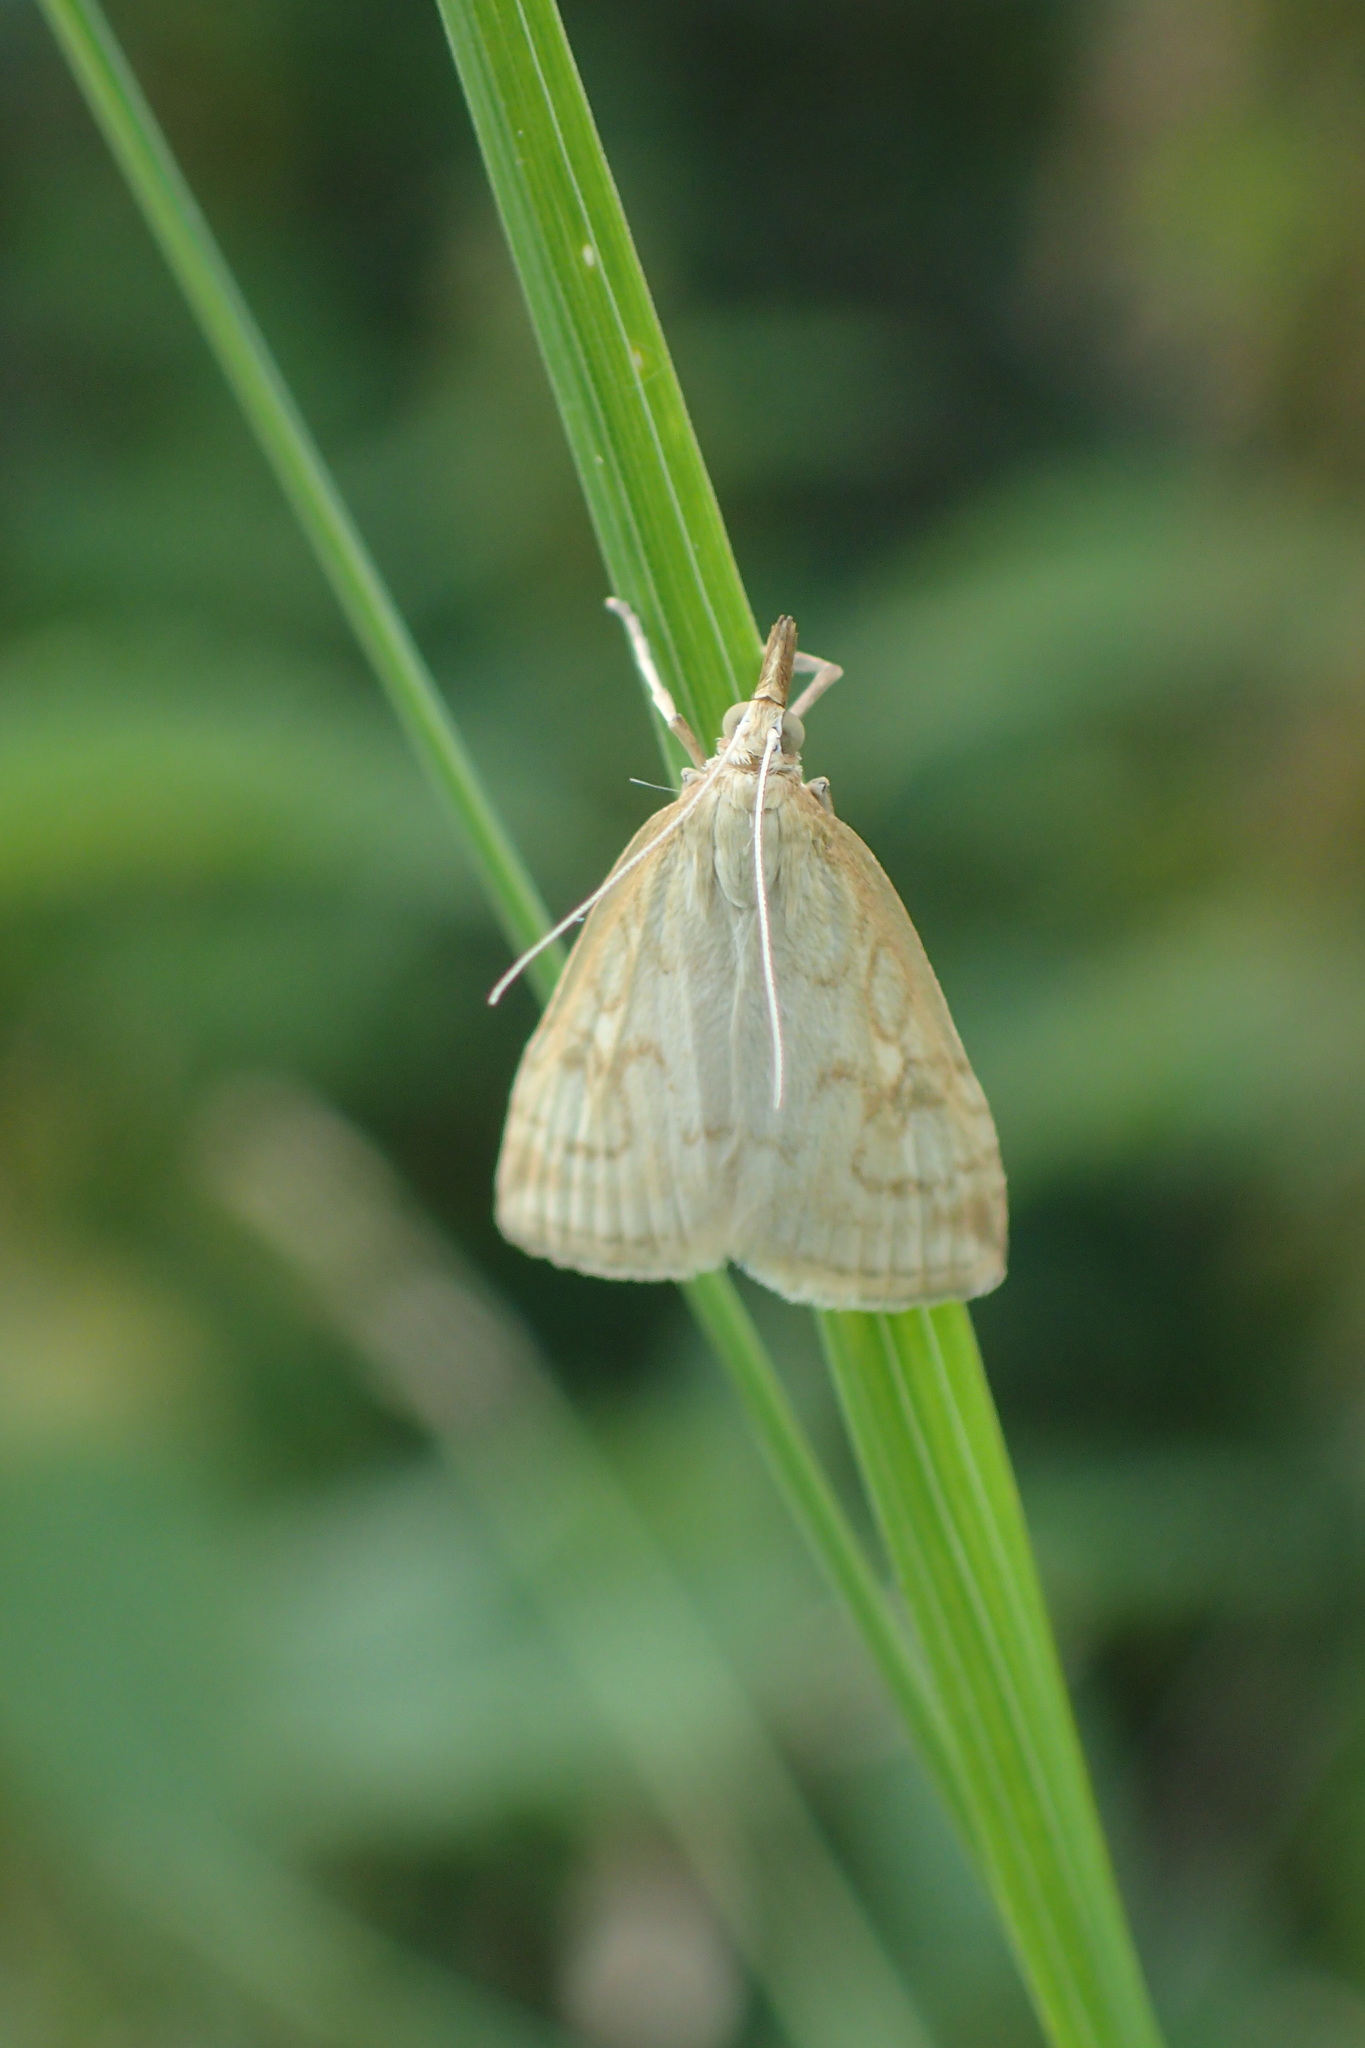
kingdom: Animalia
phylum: Arthropoda
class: Insecta
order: Lepidoptera
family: Crambidae
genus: Udea
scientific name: Udea lutealis
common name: Pale straw pearl
